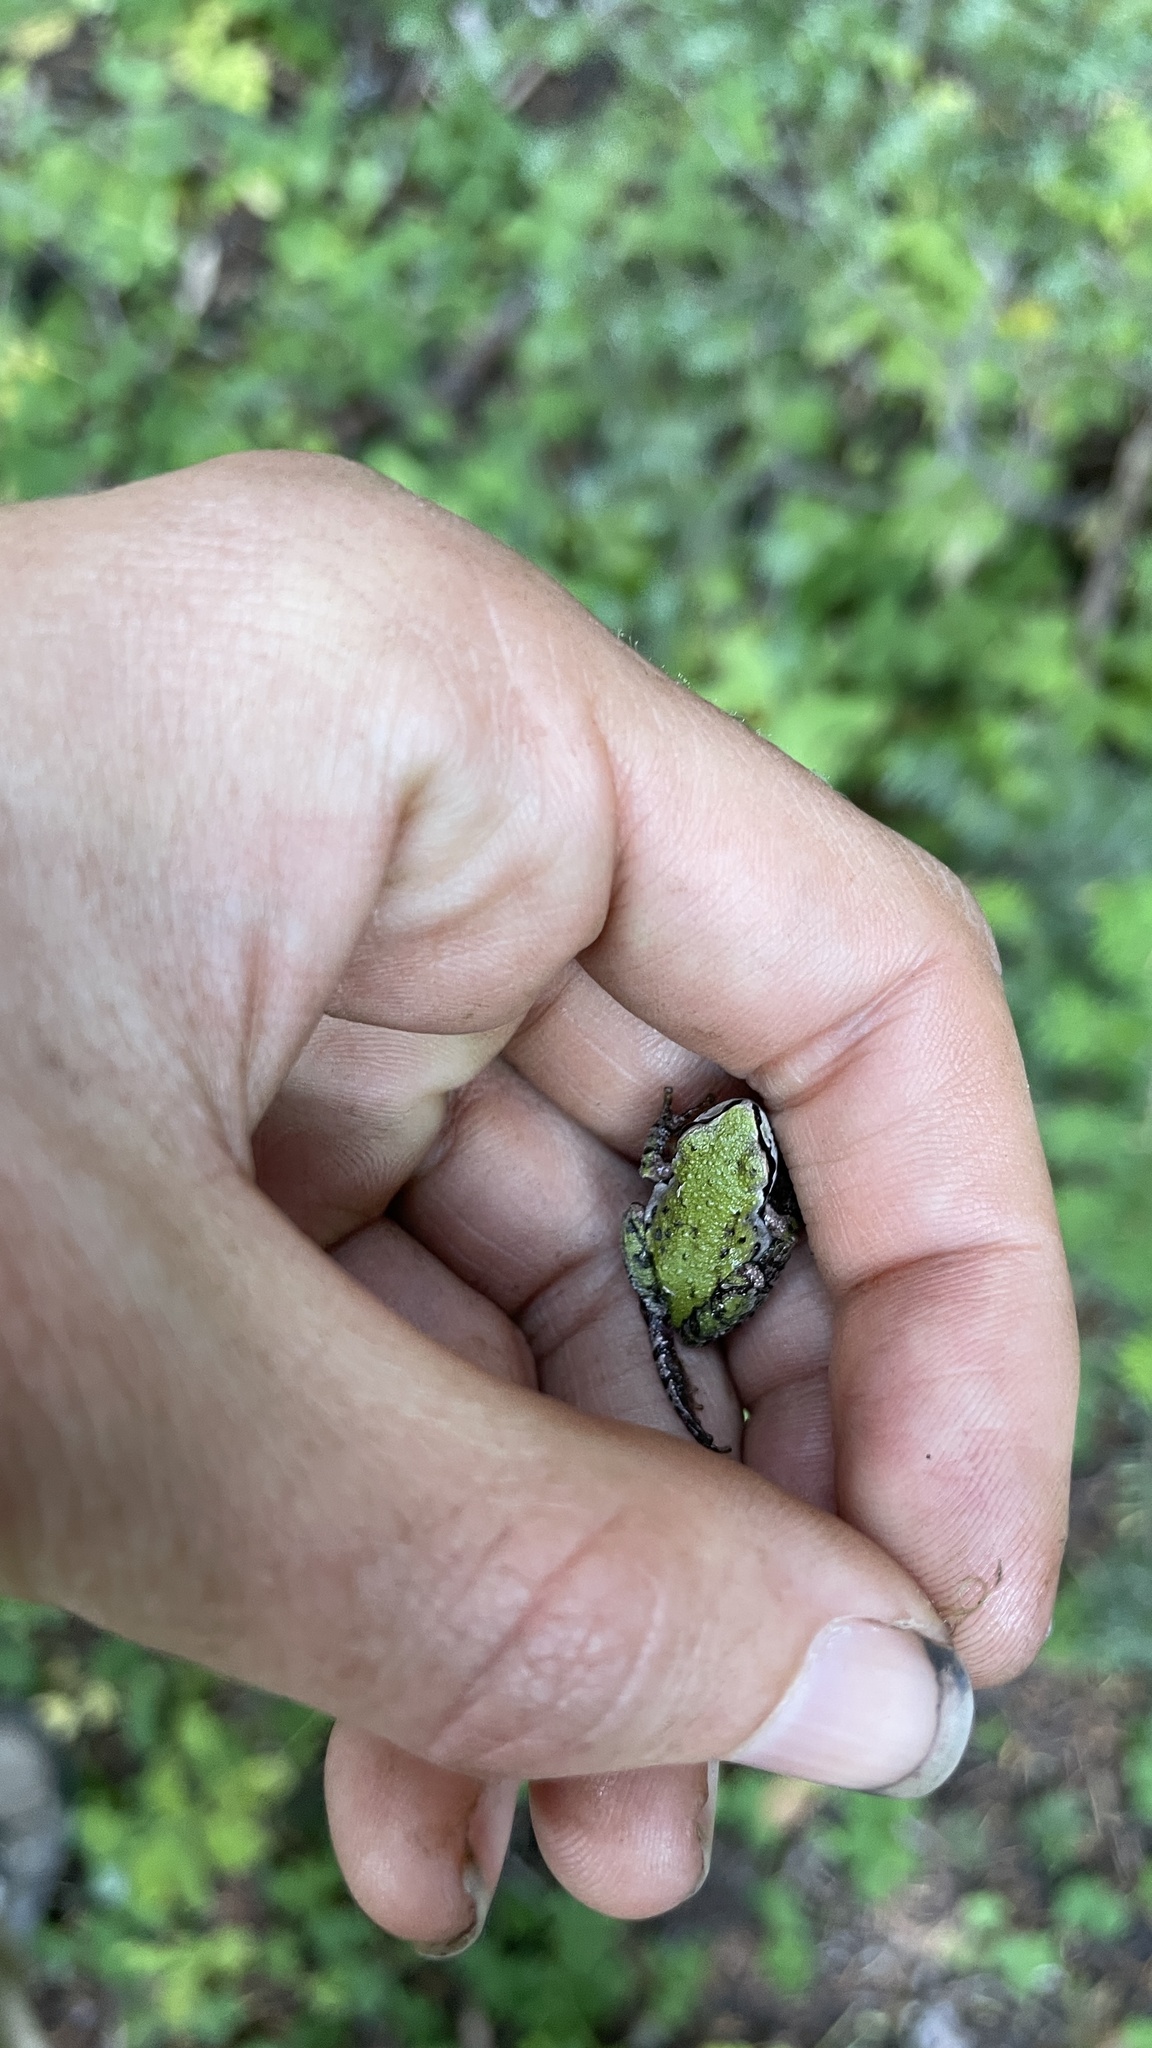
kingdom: Animalia
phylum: Chordata
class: Amphibia
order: Anura
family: Hylidae
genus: Pseudacris
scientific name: Pseudacris regilla
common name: Pacific chorus frog
